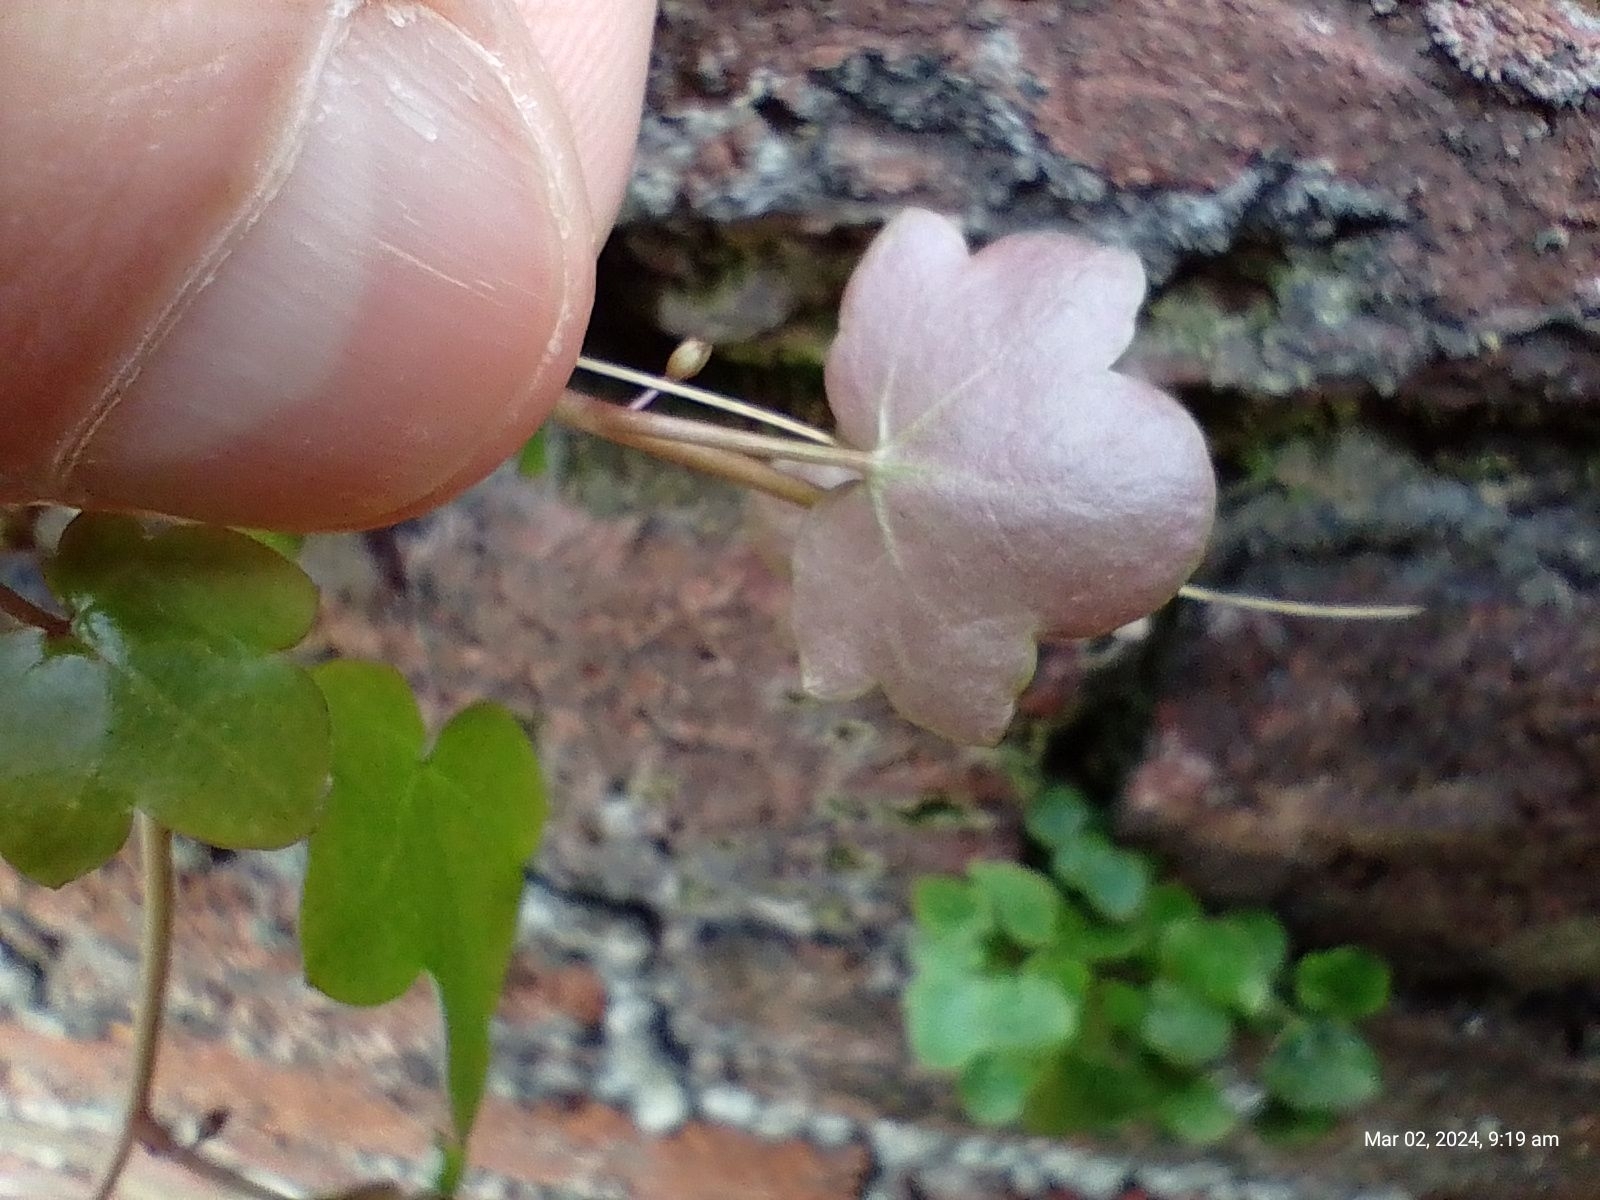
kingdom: Plantae
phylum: Tracheophyta
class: Magnoliopsida
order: Lamiales
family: Plantaginaceae
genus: Cymbalaria
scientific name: Cymbalaria muralis
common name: Ivy-leaved toadflax
